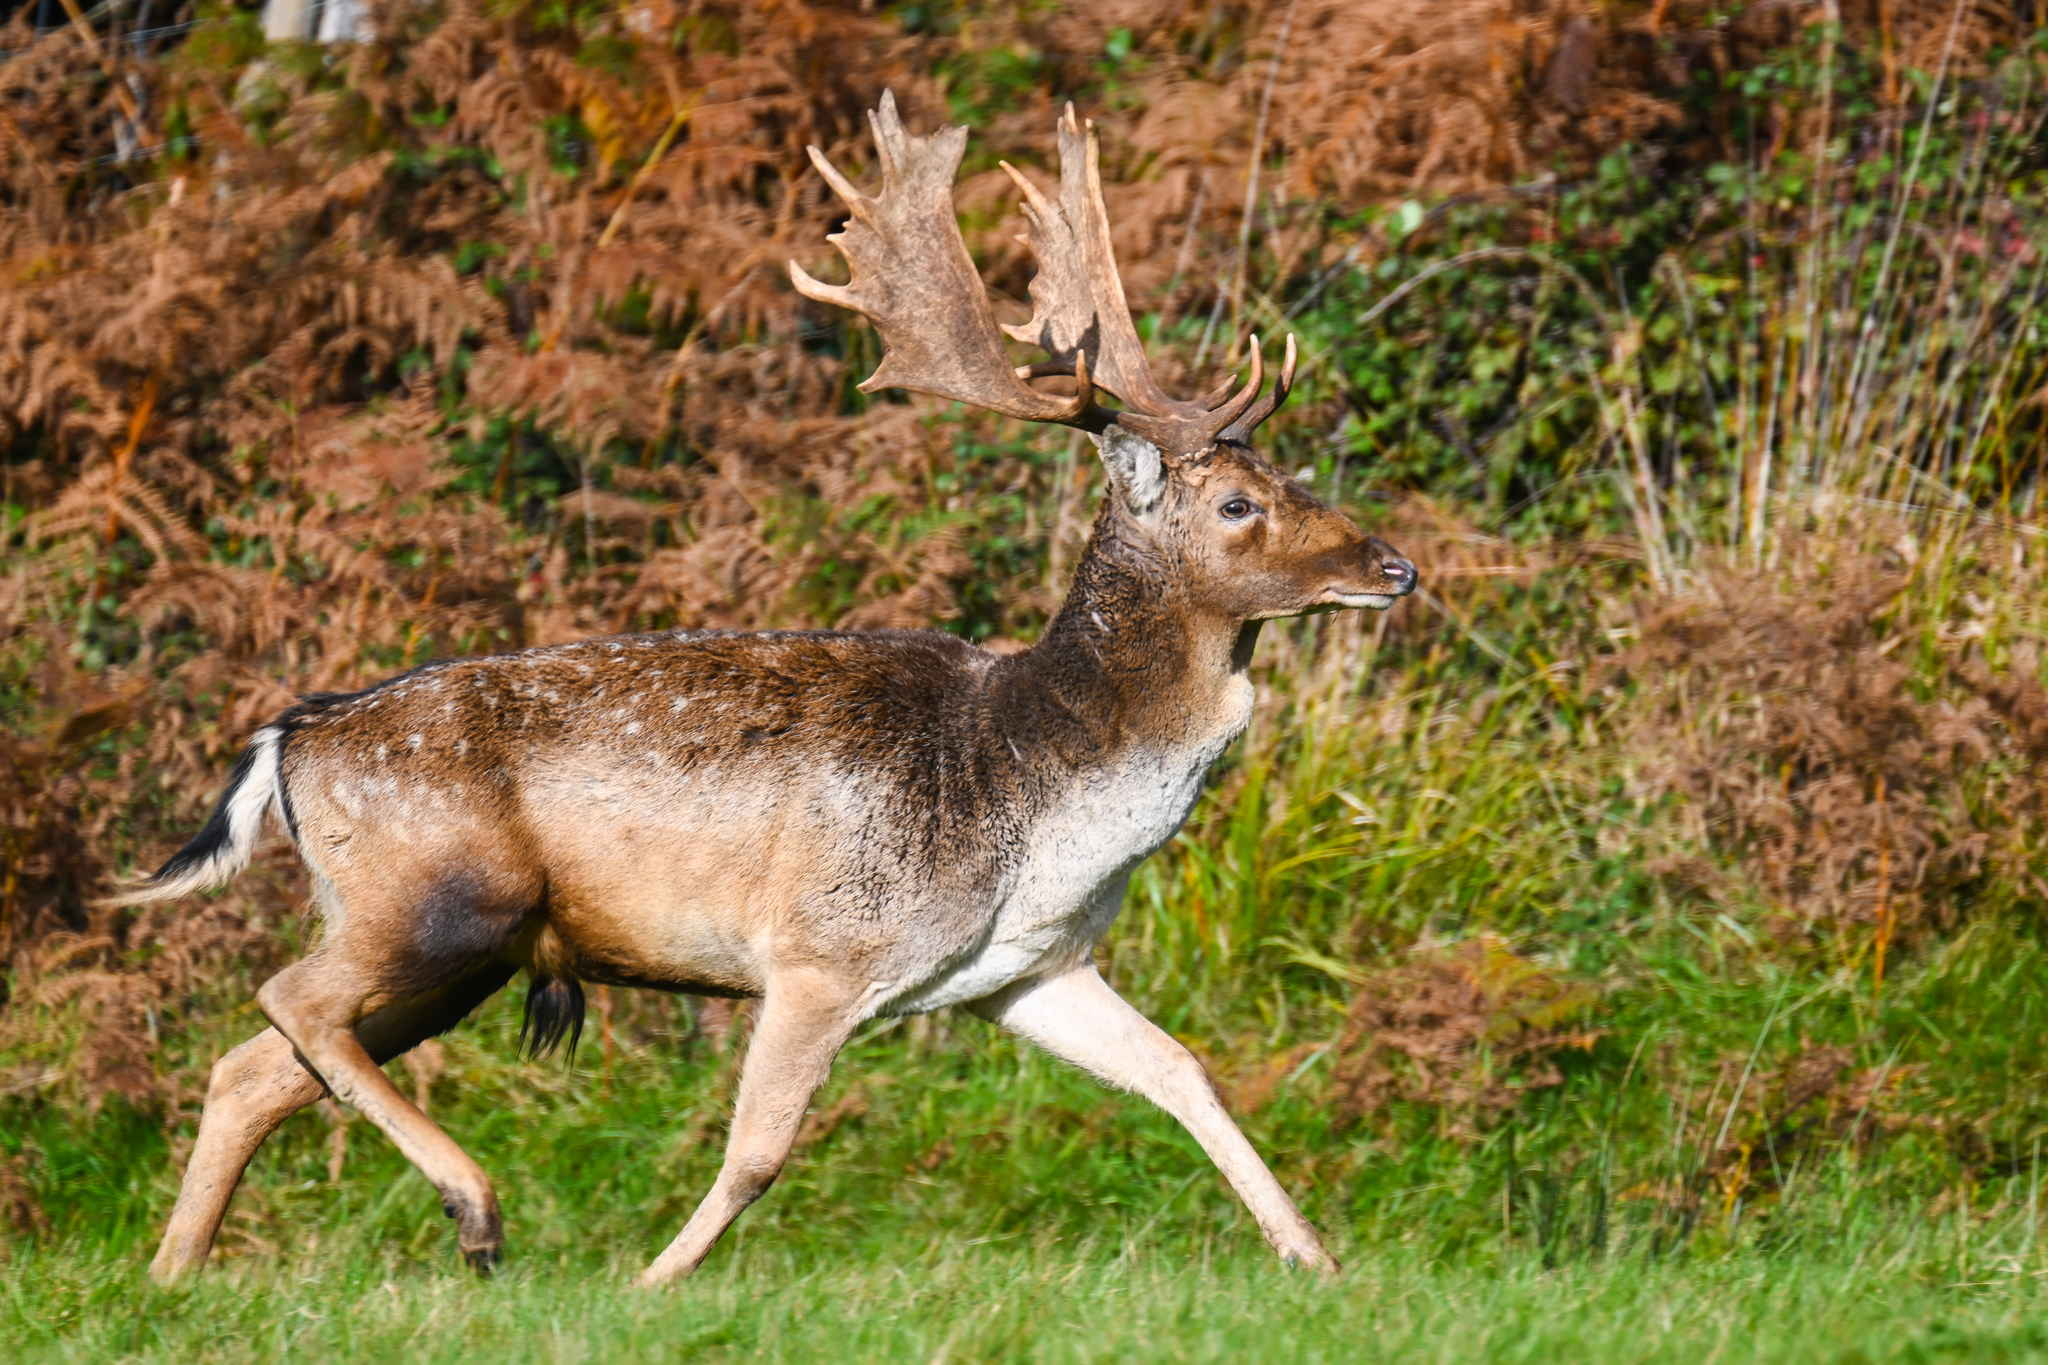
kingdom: Animalia
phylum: Chordata
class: Mammalia
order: Artiodactyla
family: Cervidae
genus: Dama
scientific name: Dama dama
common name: Fallow deer
